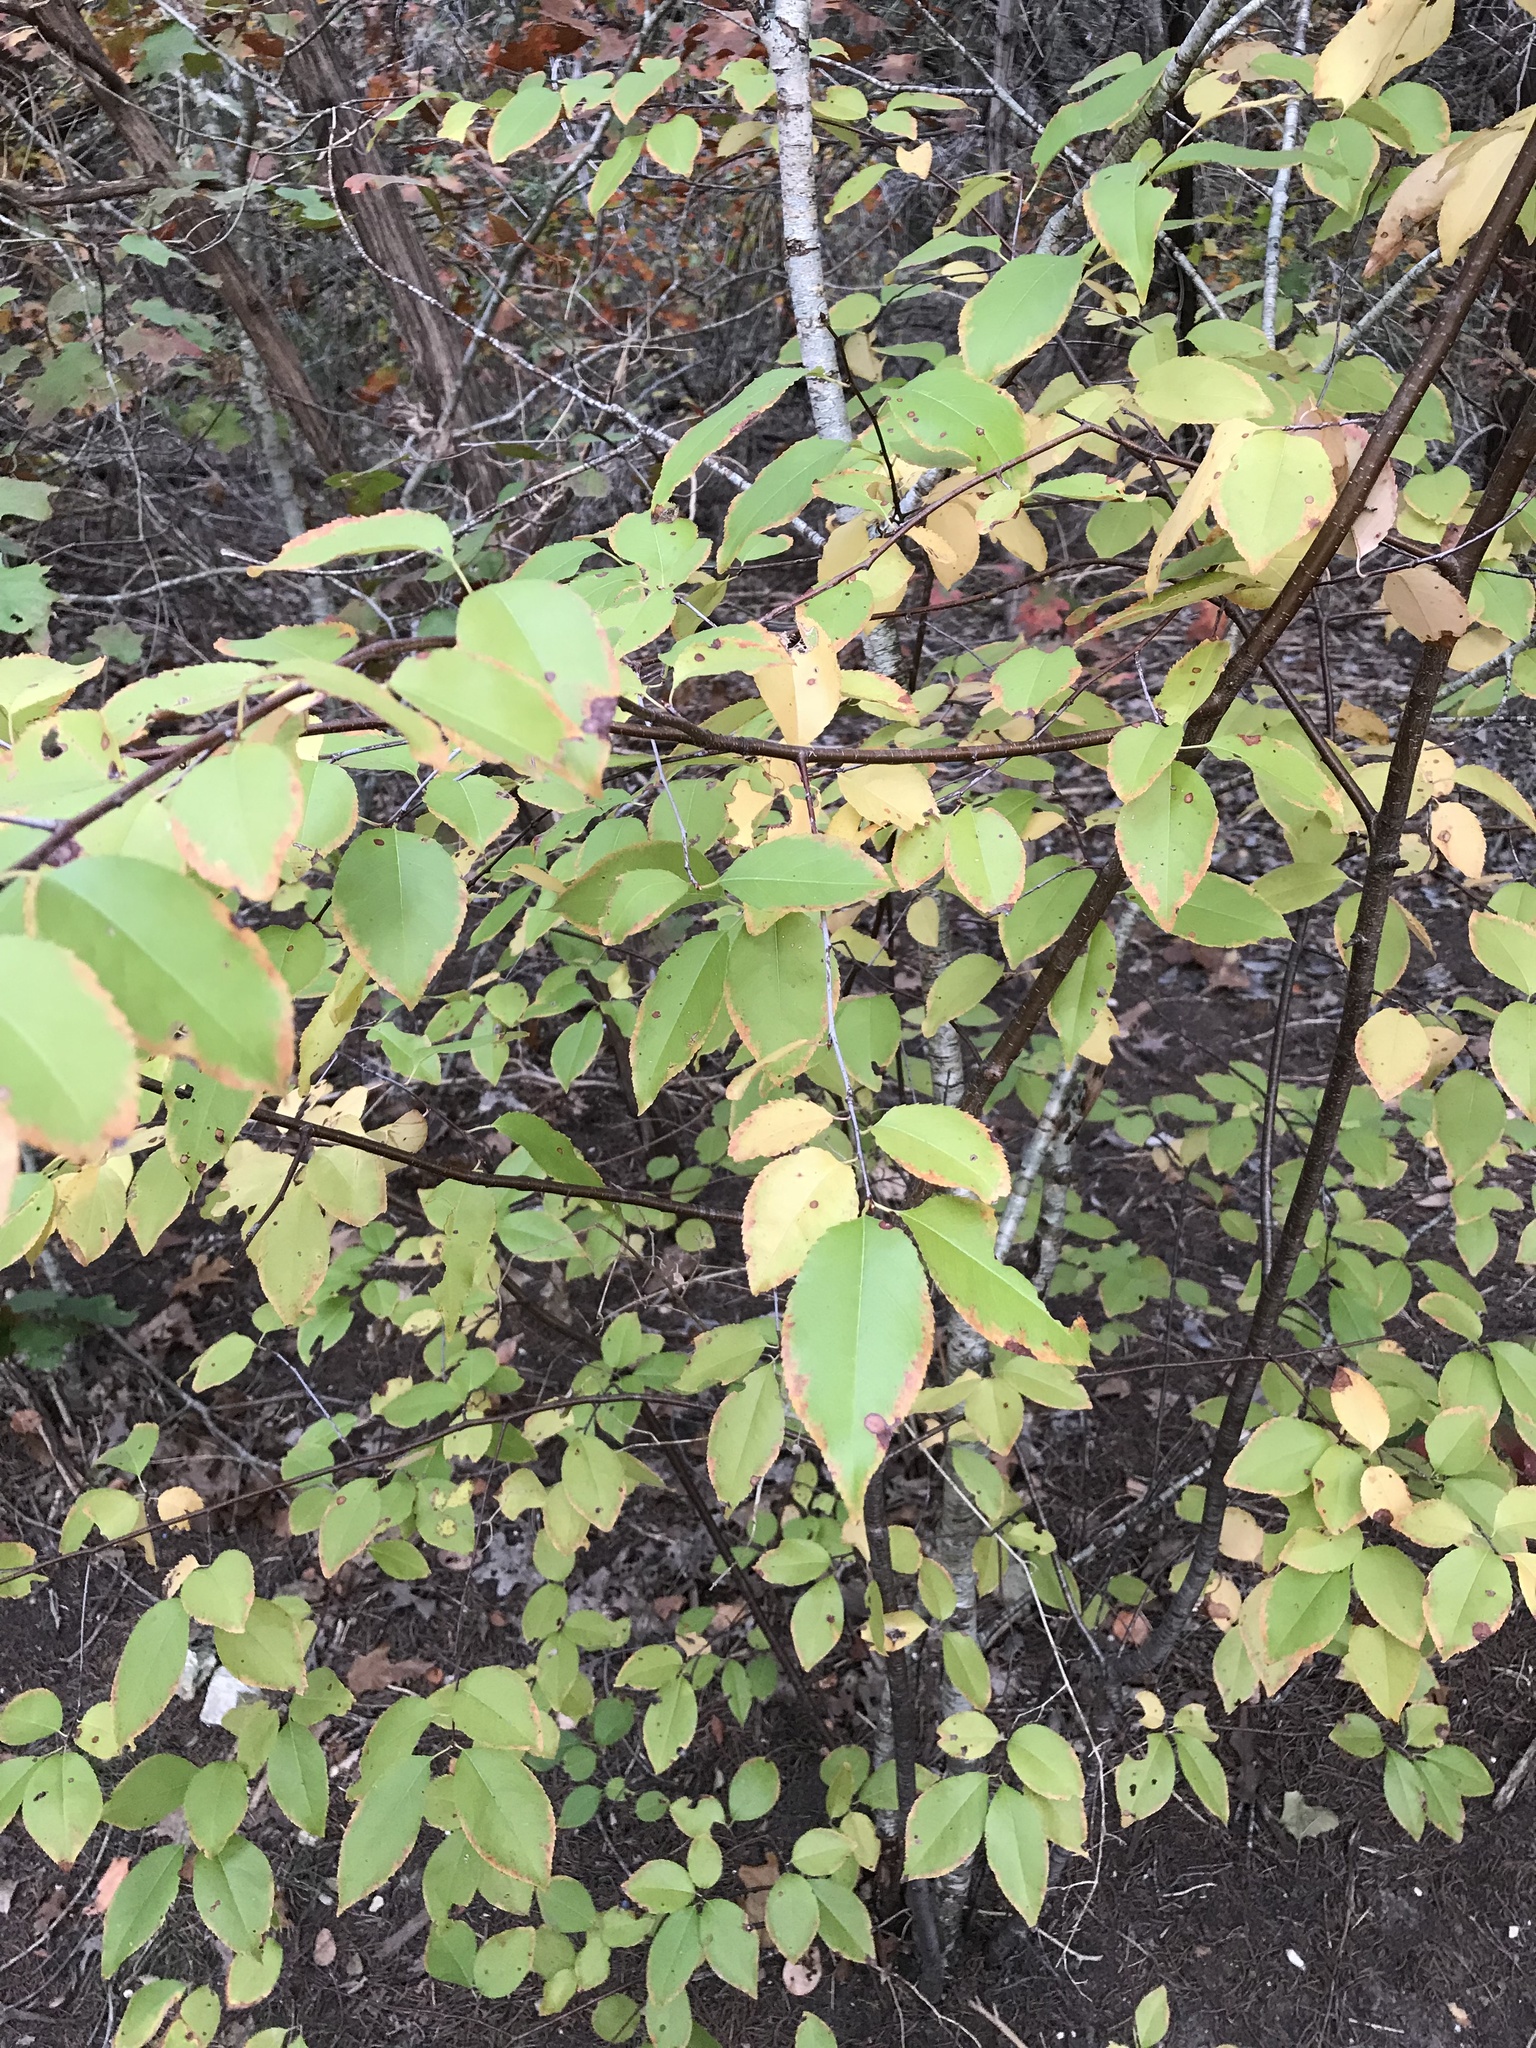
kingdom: Plantae
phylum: Tracheophyta
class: Magnoliopsida
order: Rosales
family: Rosaceae
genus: Prunus
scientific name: Prunus serotina
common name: Black cherry
